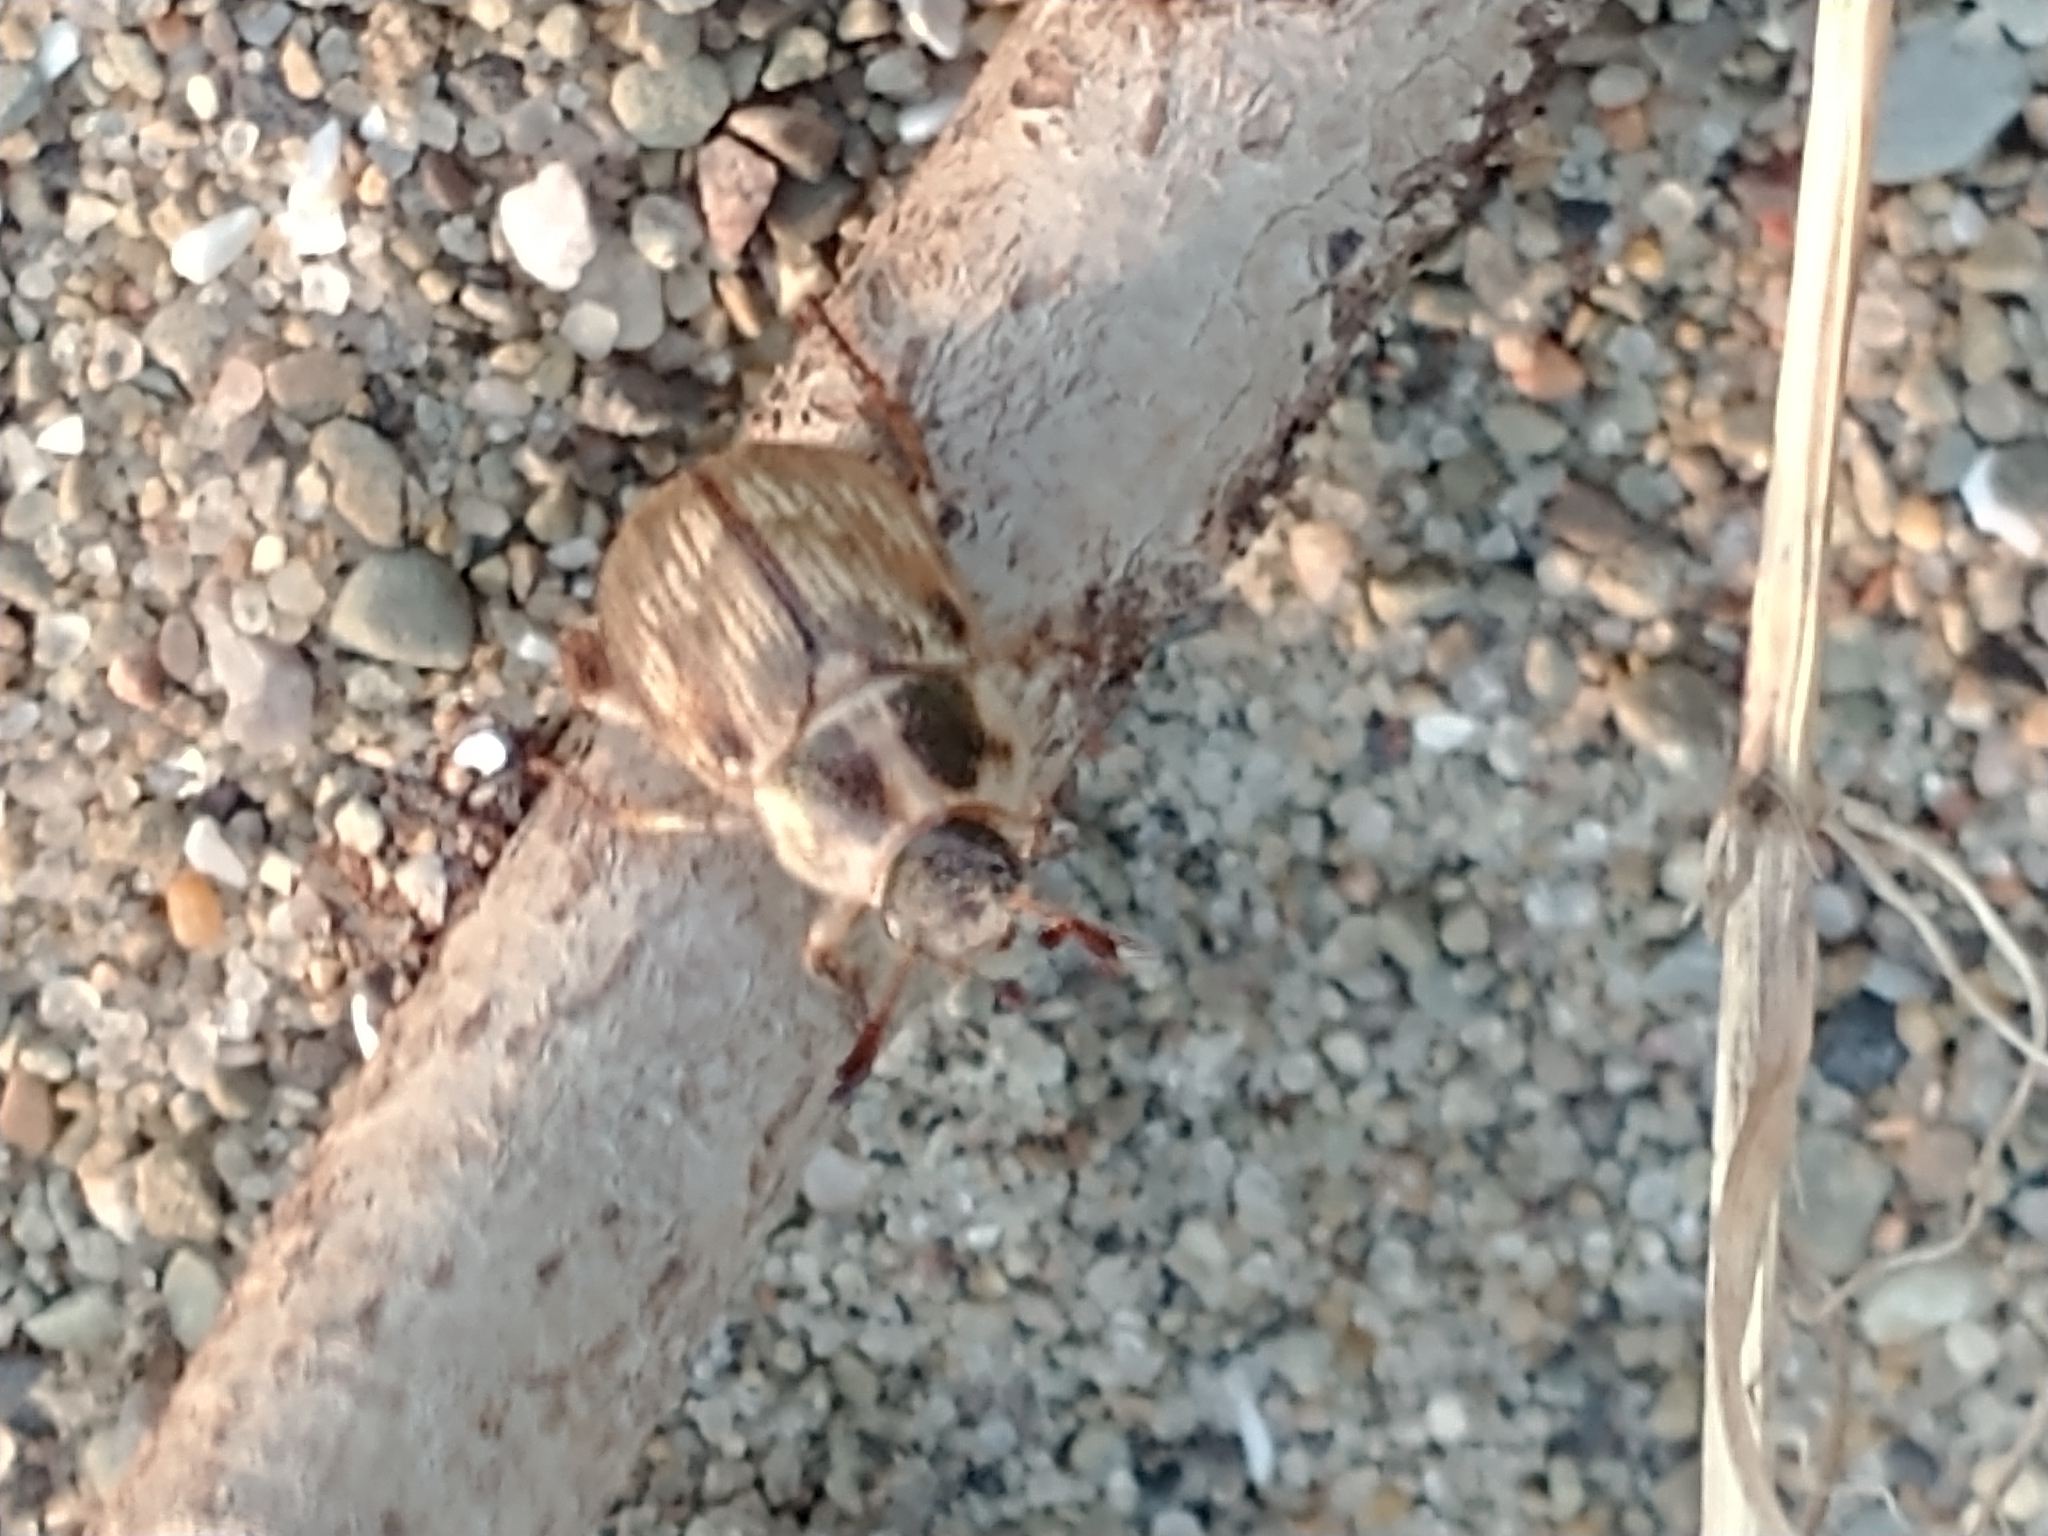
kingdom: Animalia
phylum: Arthropoda
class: Insecta
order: Coleoptera
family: Scarabaeidae
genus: Exomala
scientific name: Exomala orientalis
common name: Oriental beetle
